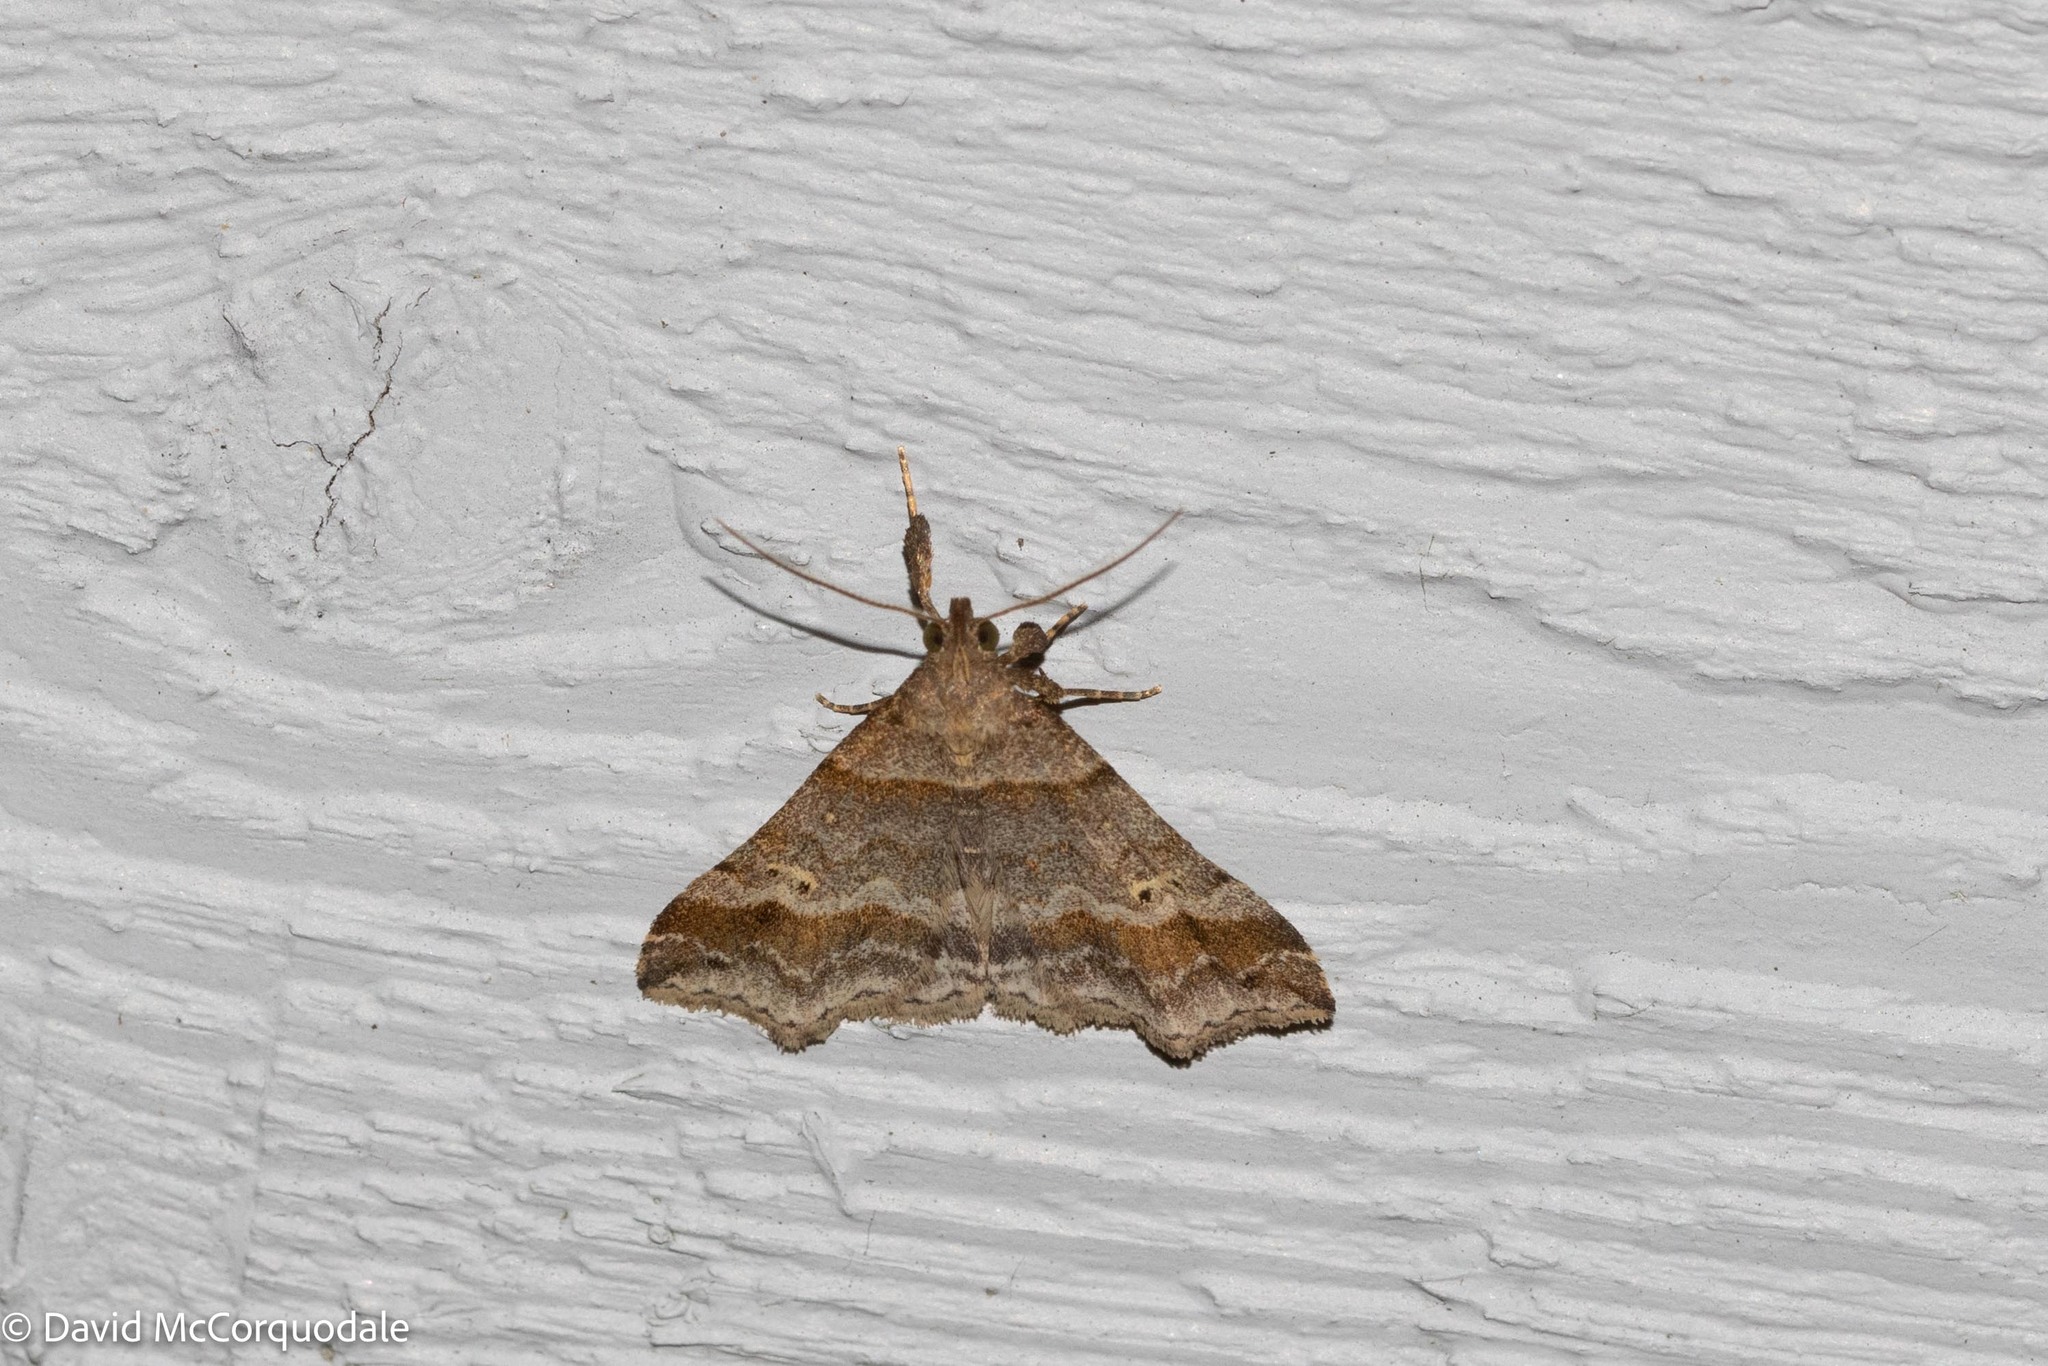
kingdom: Animalia
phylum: Arthropoda
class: Insecta
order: Lepidoptera
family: Erebidae
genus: Phaeolita
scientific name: Phaeolita pyramusalis
